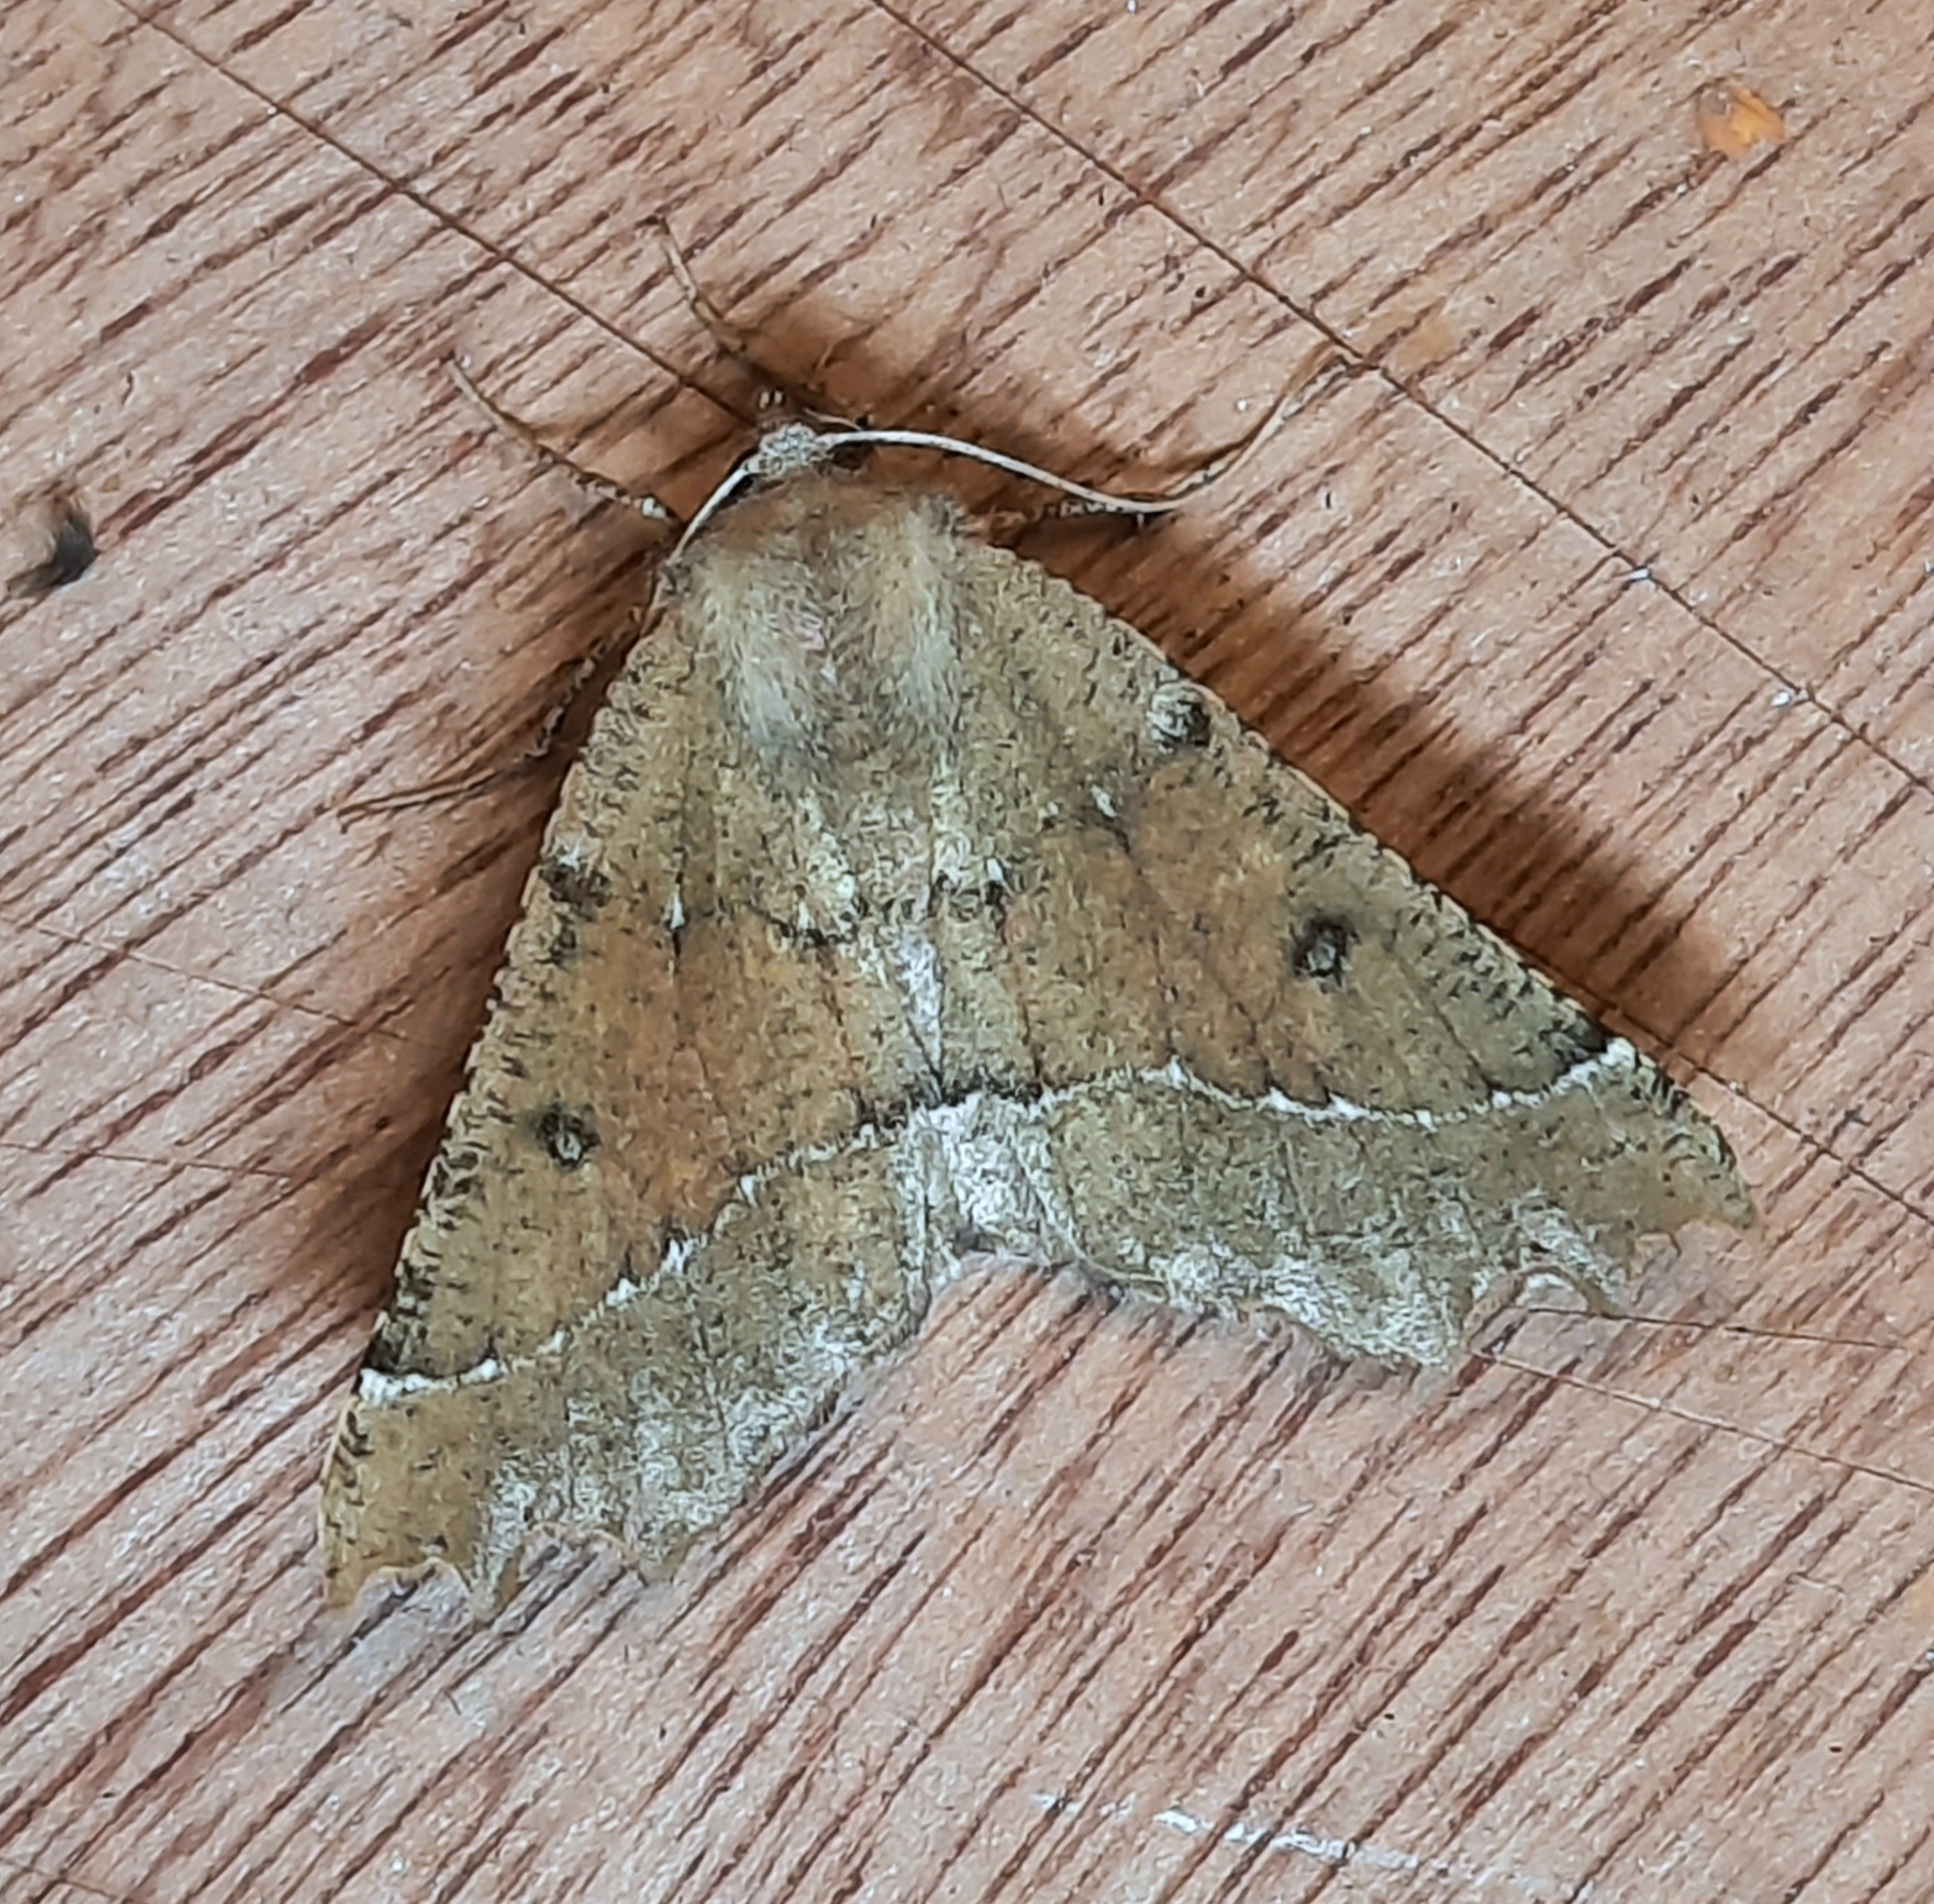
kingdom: Animalia
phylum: Arthropoda
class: Insecta
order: Lepidoptera
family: Geometridae
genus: Odontopera
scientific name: Odontopera bidentata
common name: Scalloped hazel
